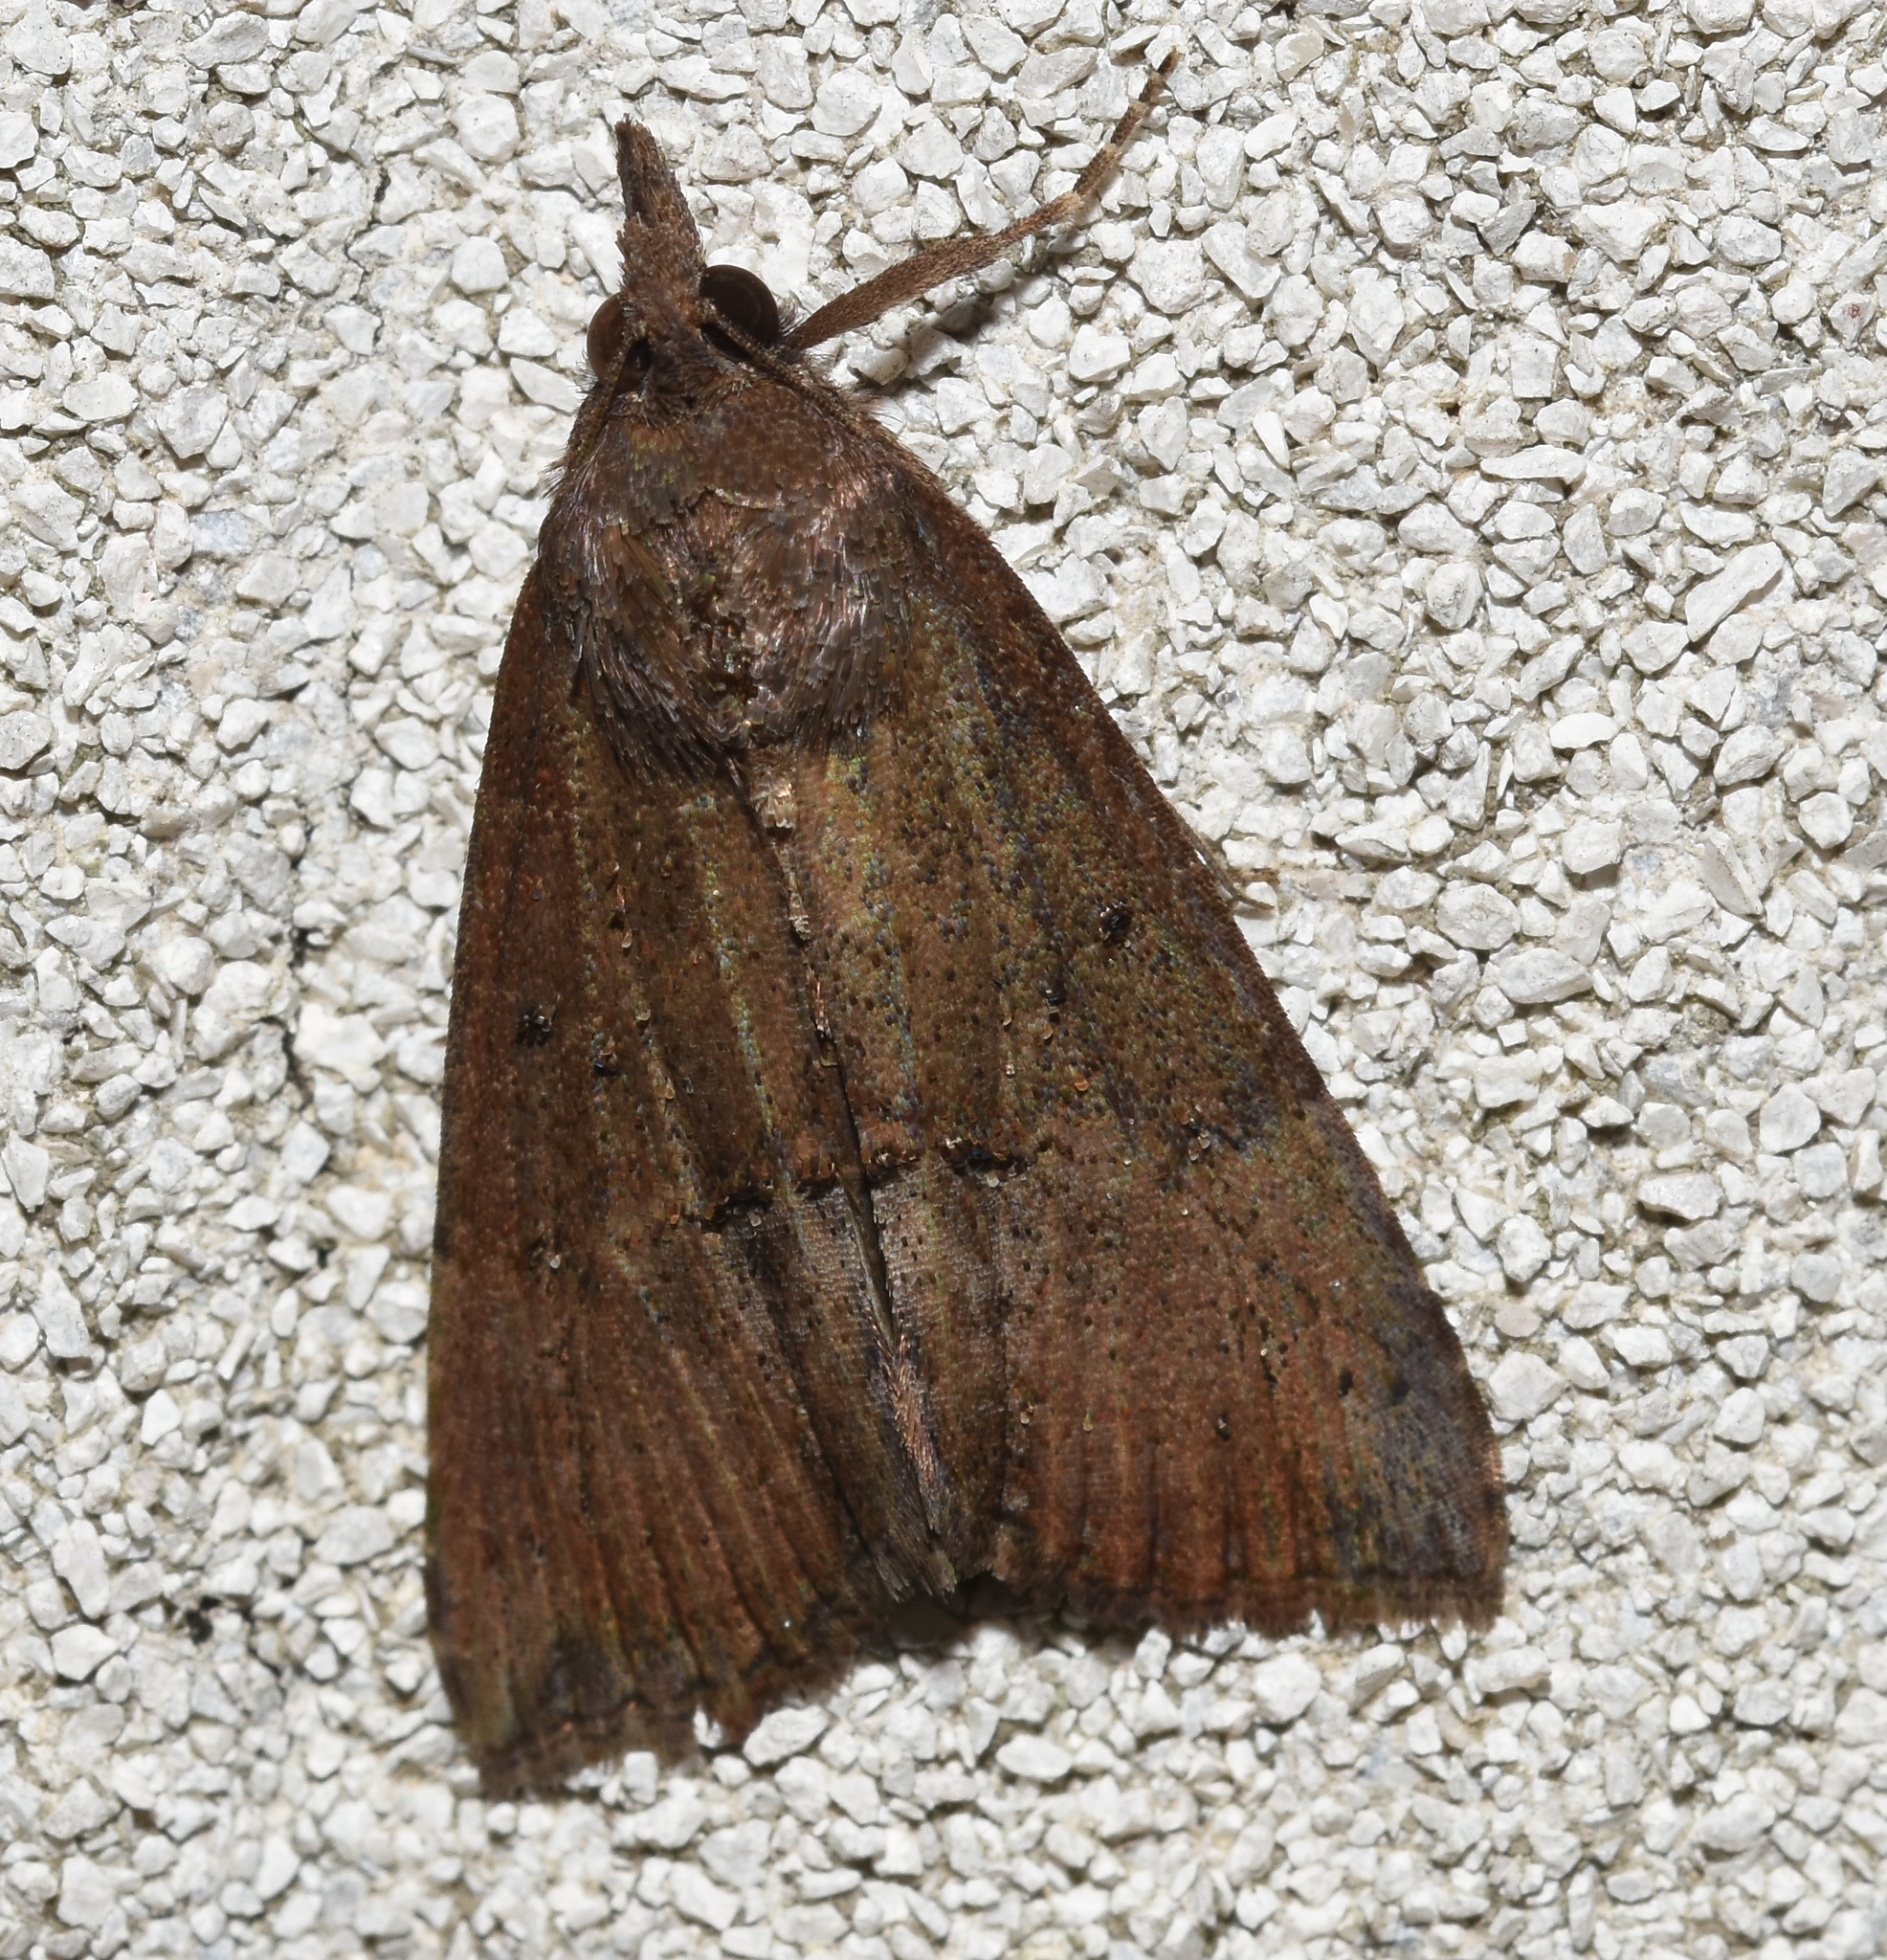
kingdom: Animalia
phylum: Arthropoda
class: Insecta
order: Lepidoptera
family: Erebidae
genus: Hypena
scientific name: Hypena scabra
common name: Green cloverworm
